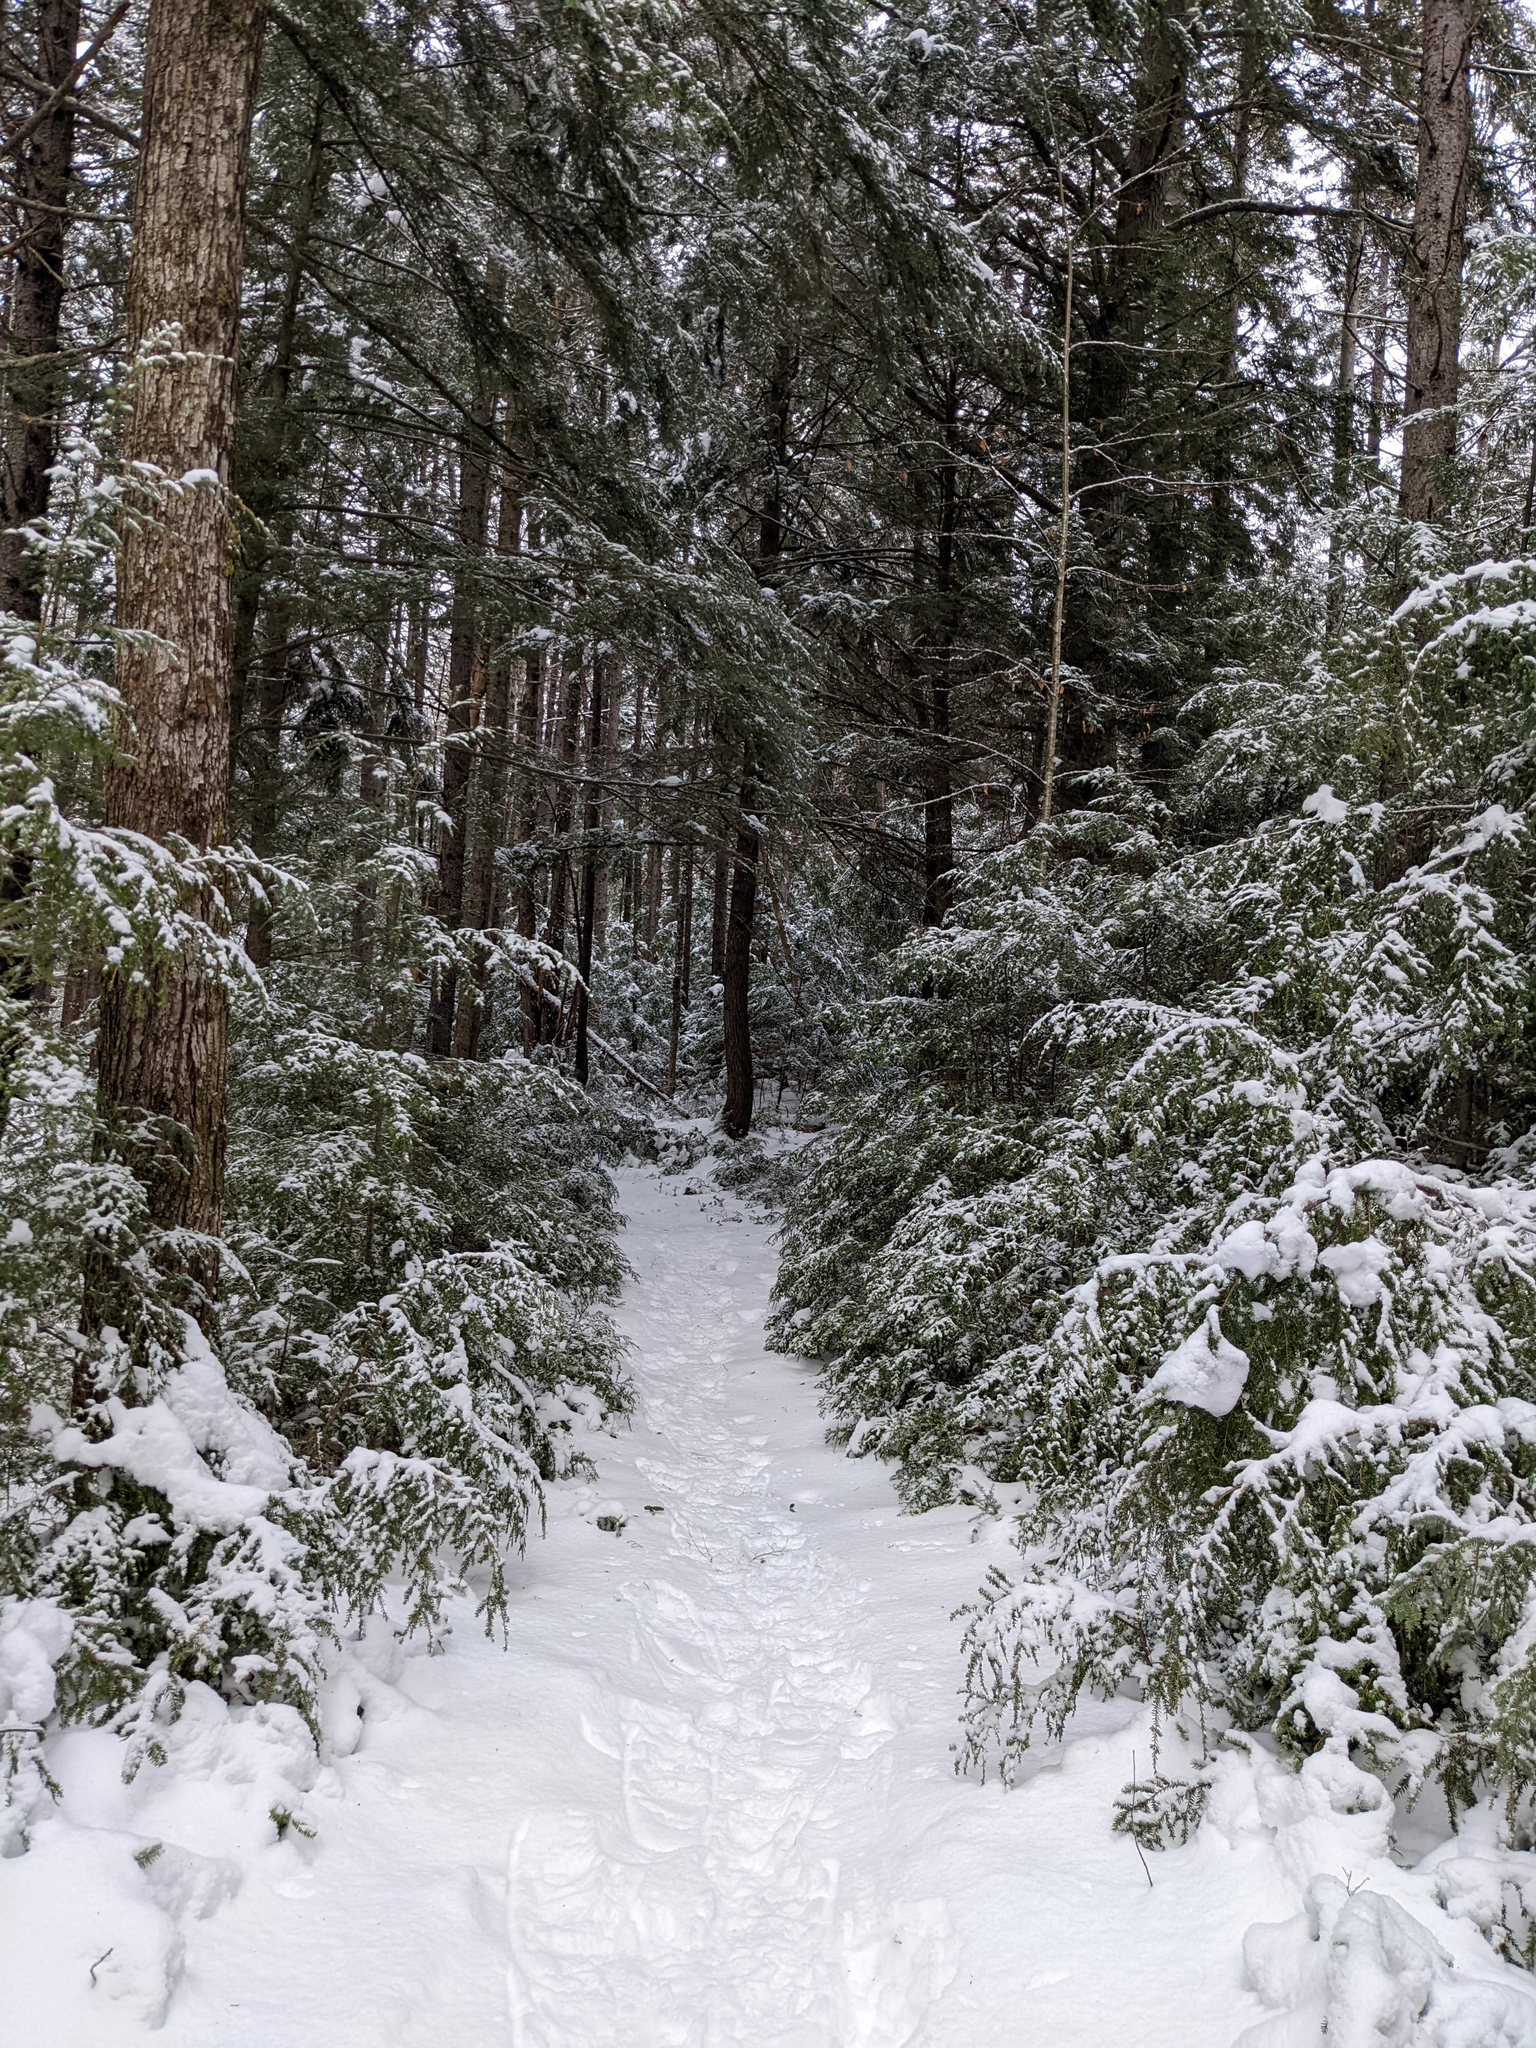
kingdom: Plantae
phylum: Tracheophyta
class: Pinopsida
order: Pinales
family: Pinaceae
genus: Tsuga
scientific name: Tsuga canadensis
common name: Eastern hemlock
